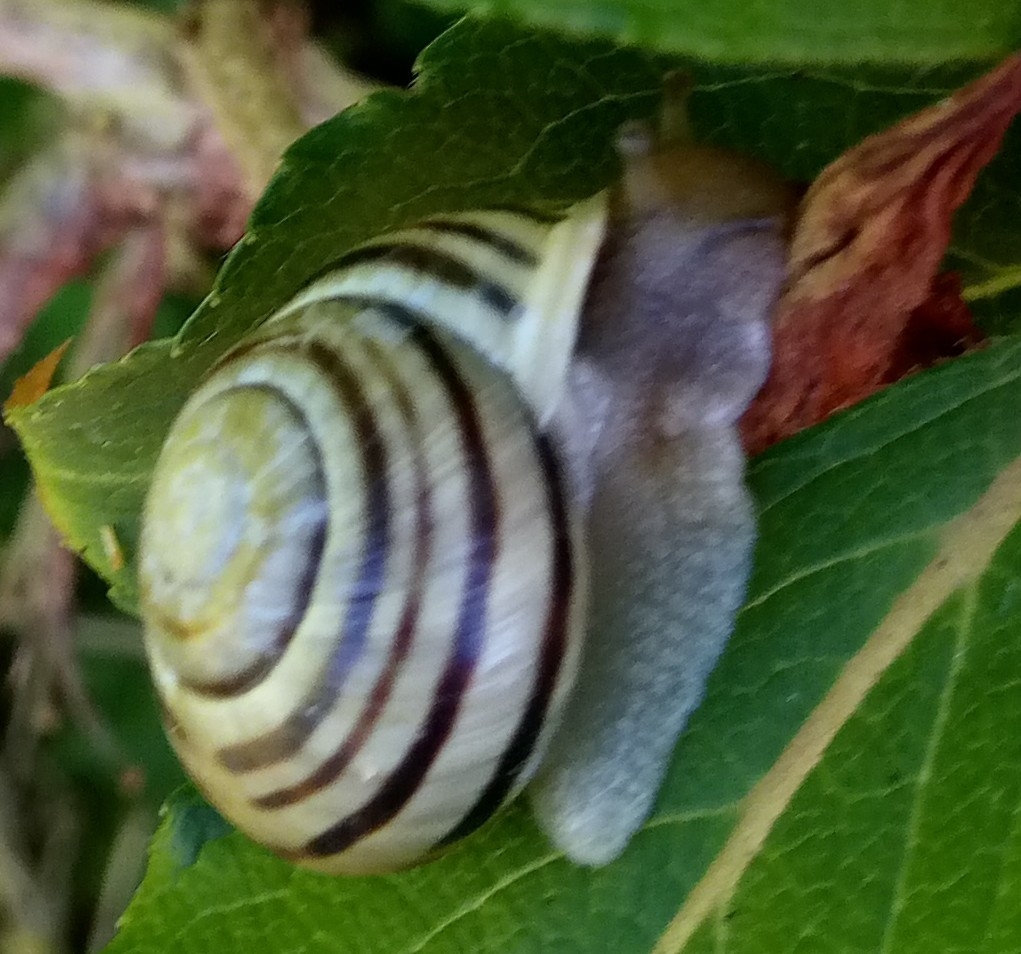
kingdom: Animalia
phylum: Mollusca
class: Gastropoda
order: Stylommatophora
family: Helicidae
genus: Cepaea
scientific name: Cepaea hortensis
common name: White-lip gardensnail
